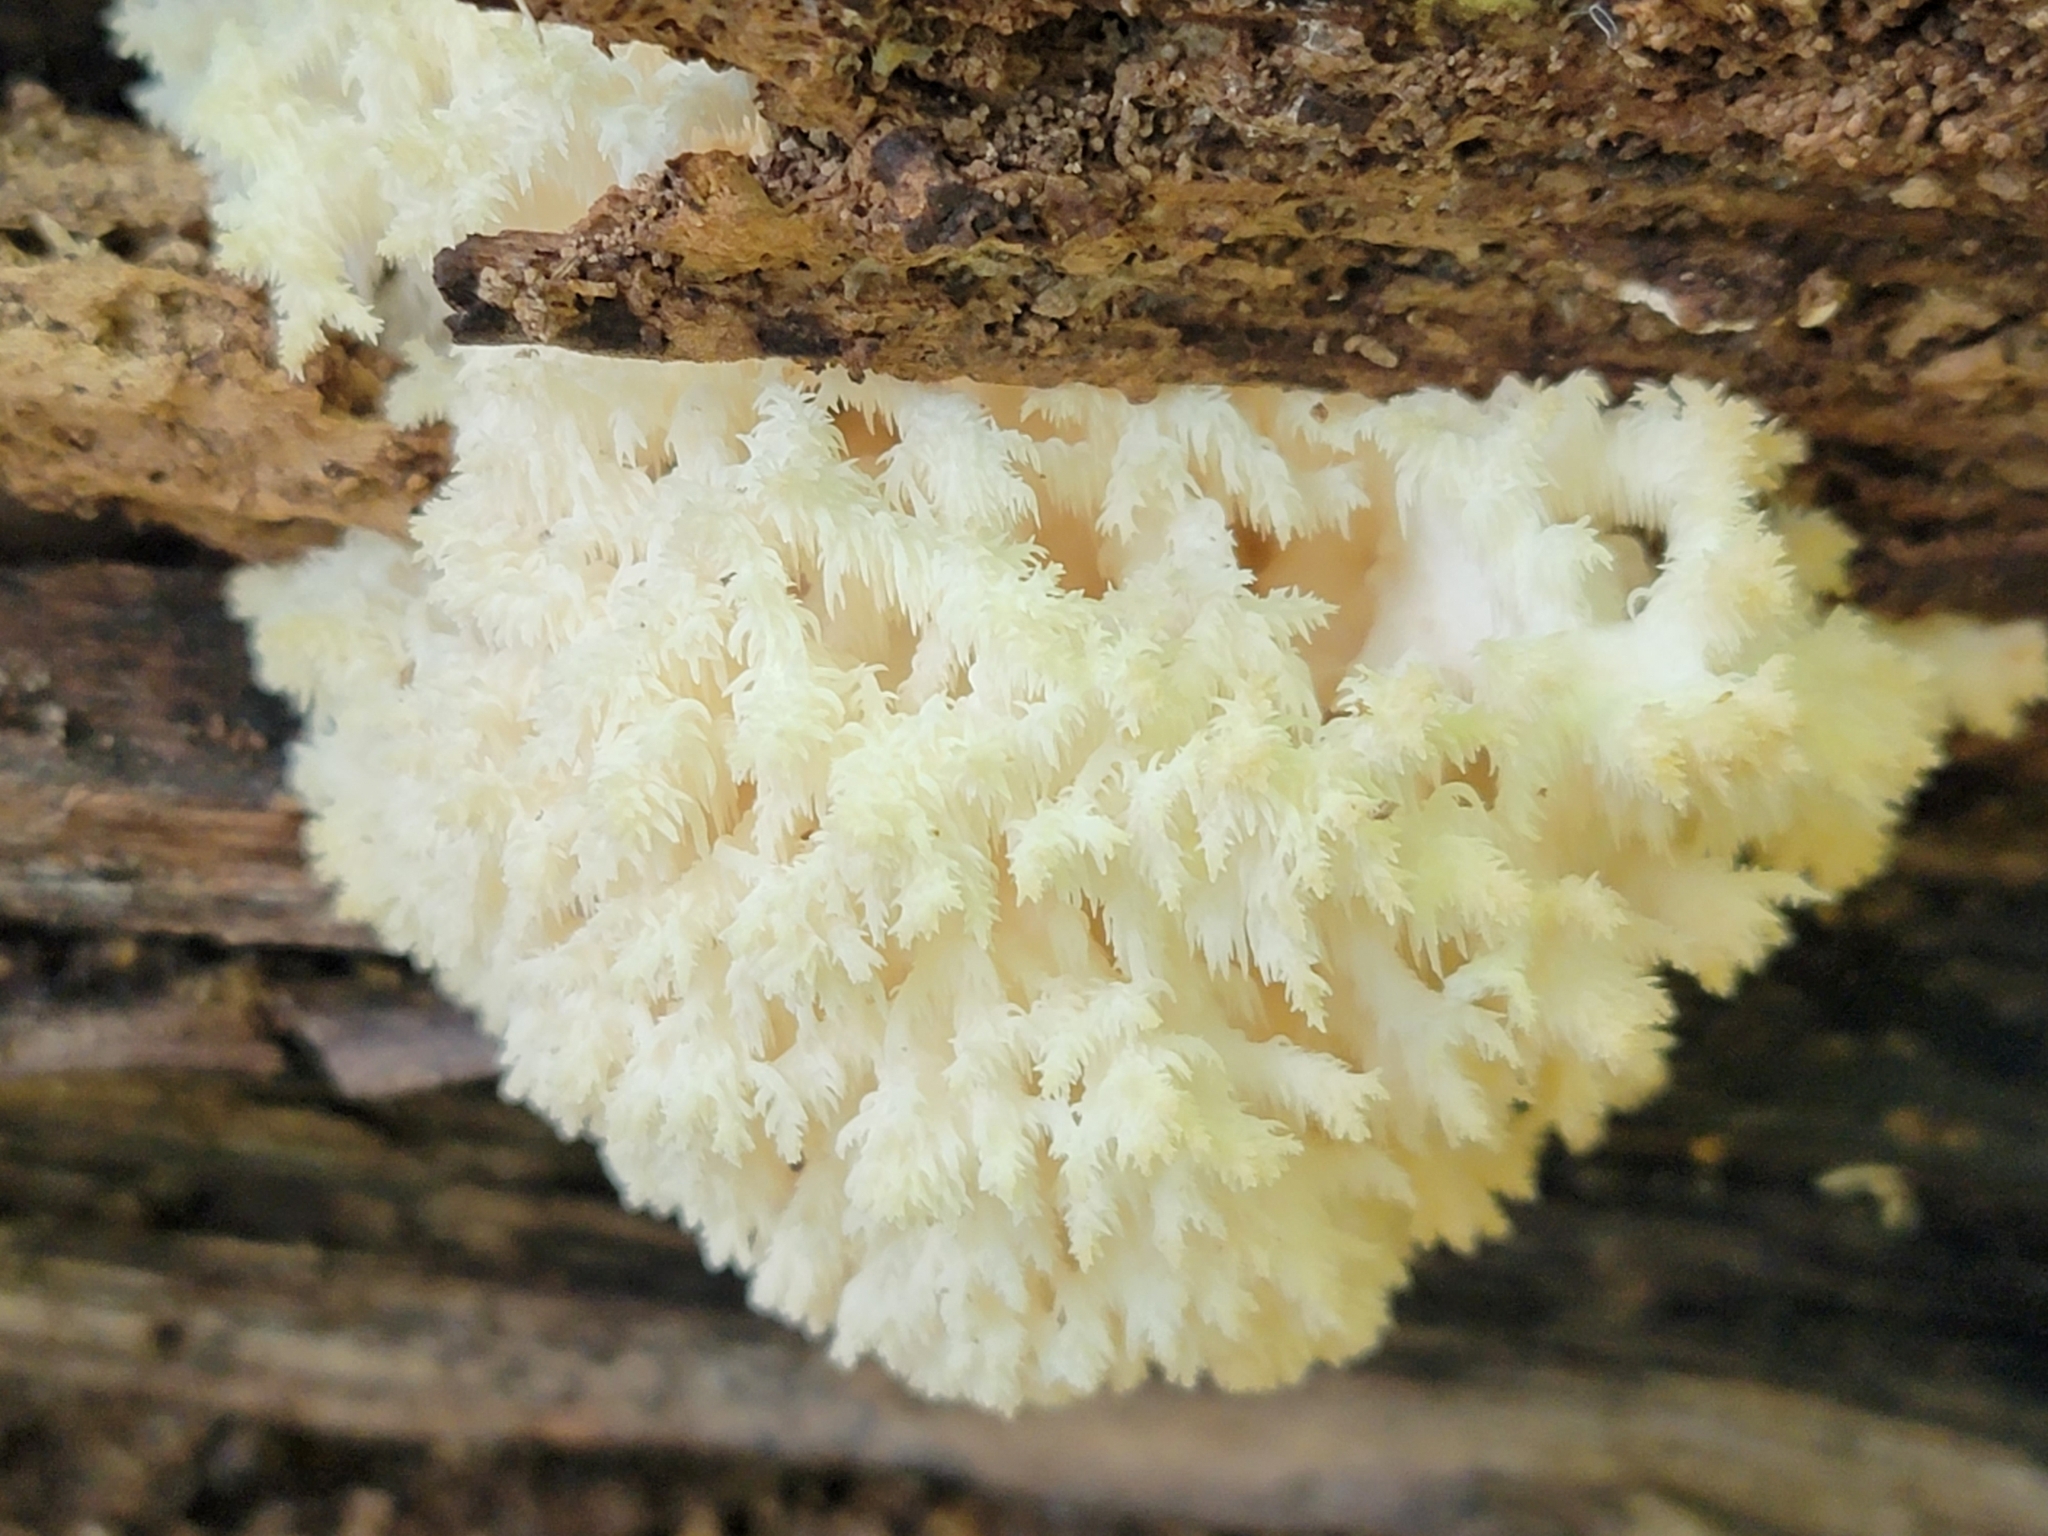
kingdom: Fungi
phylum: Basidiomycota
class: Agaricomycetes
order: Russulales
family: Hericiaceae
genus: Hericium
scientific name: Hericium coralloides
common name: Coral tooth
